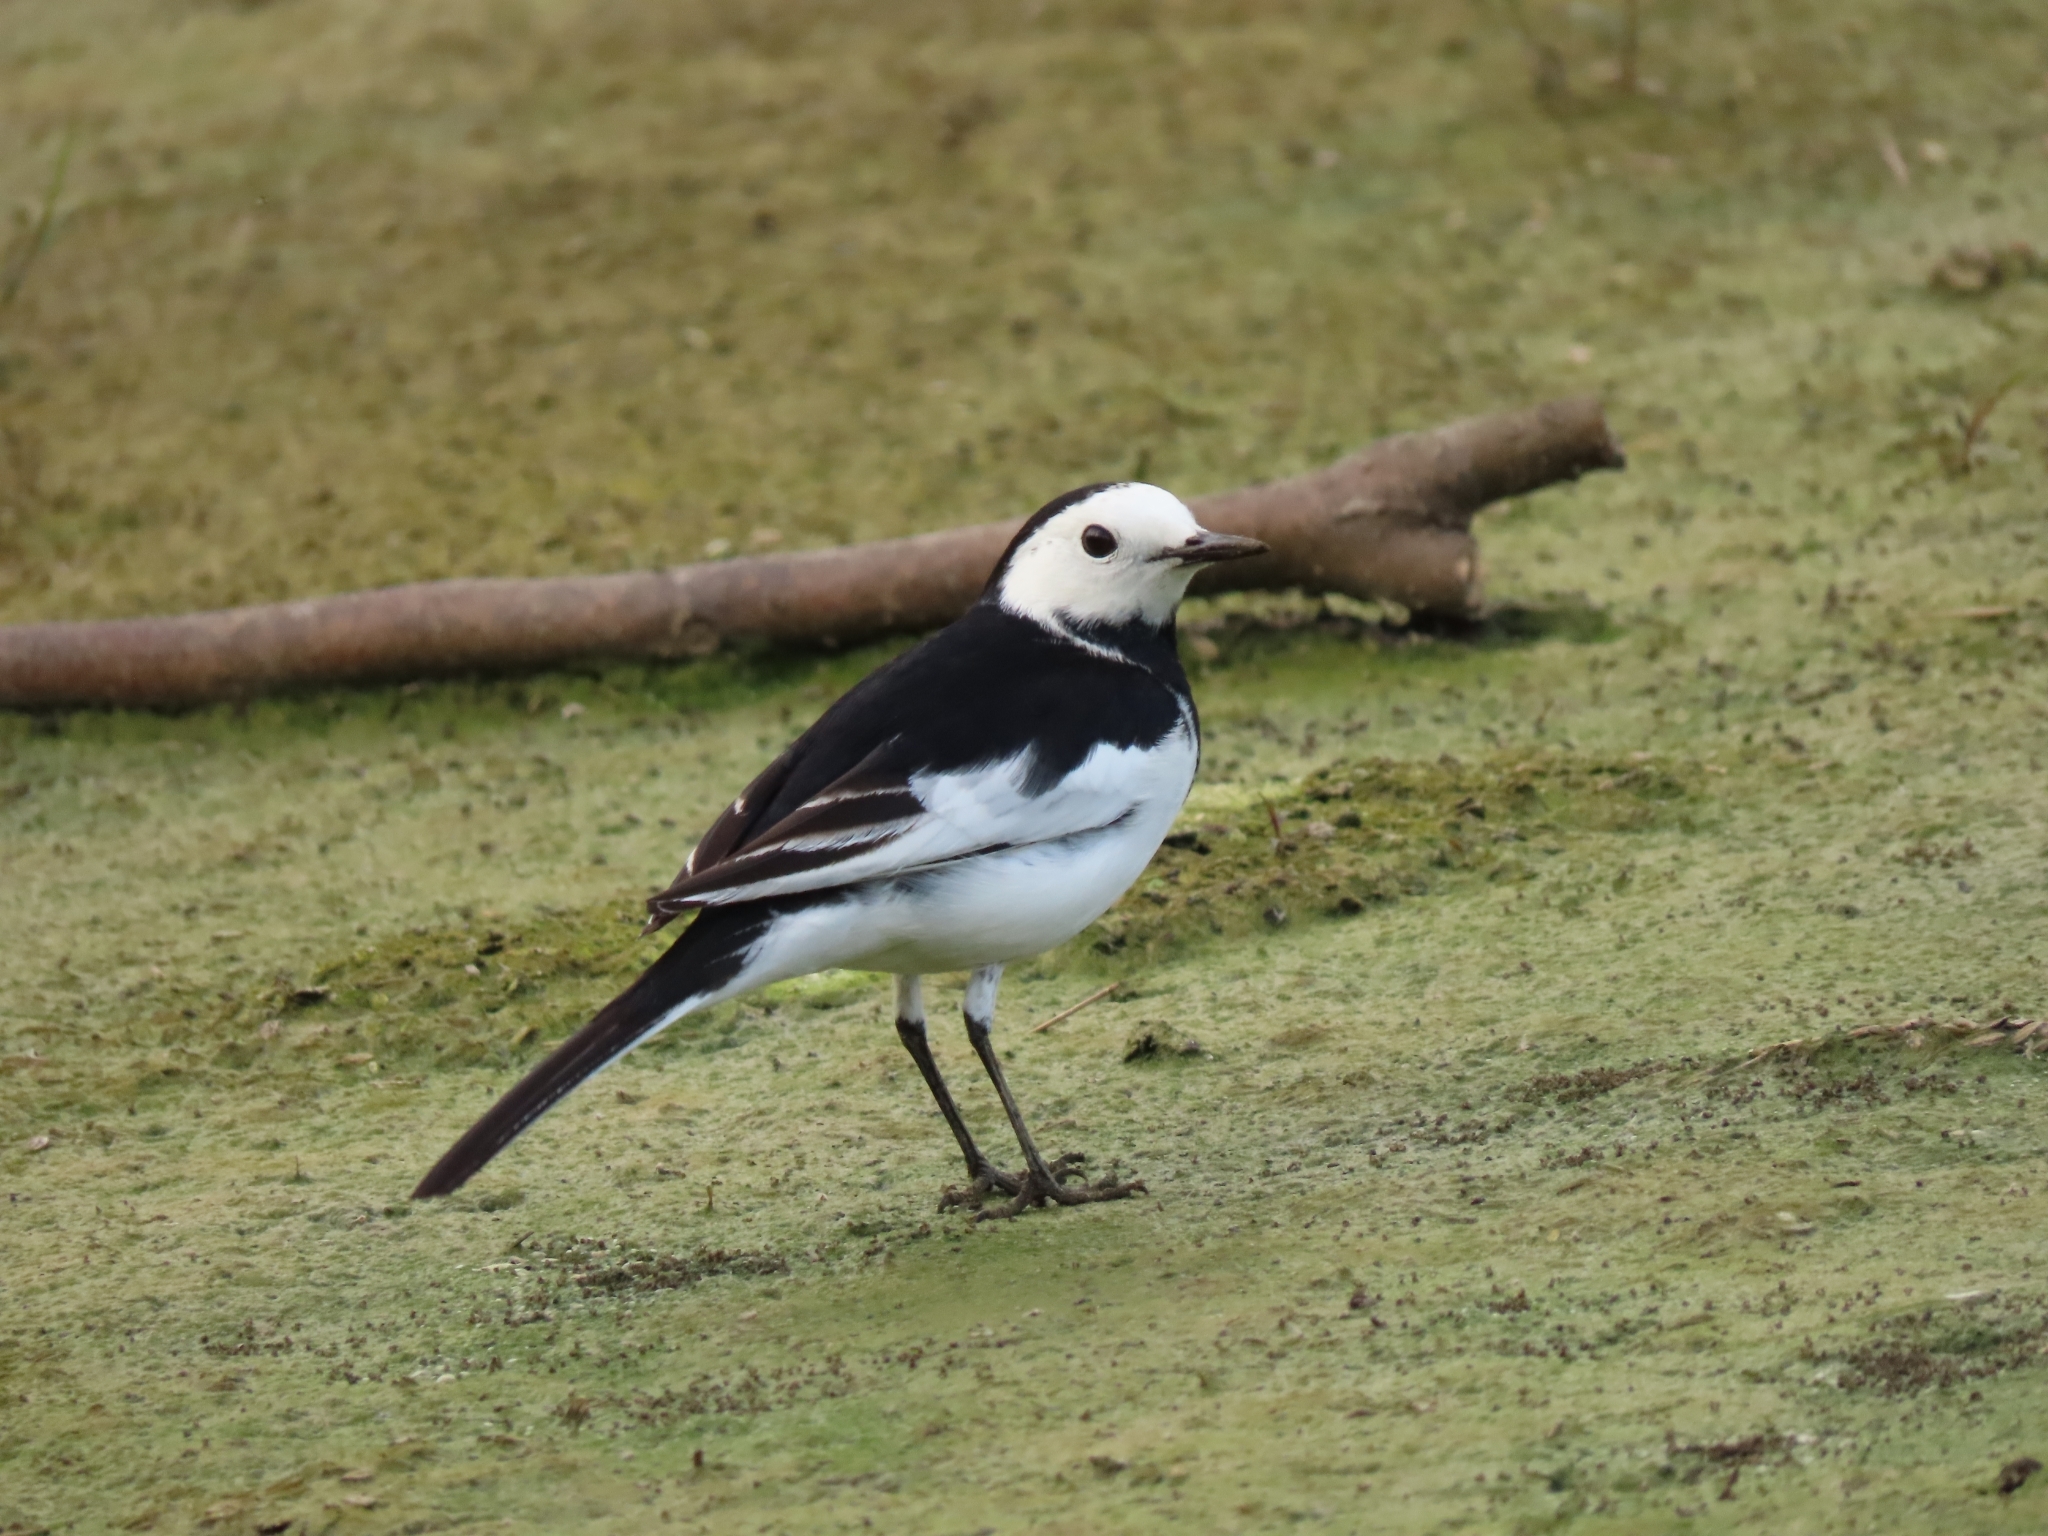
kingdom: Animalia
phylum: Chordata
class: Aves
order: Passeriformes
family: Motacillidae
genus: Motacilla
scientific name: Motacilla alba
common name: White wagtail
